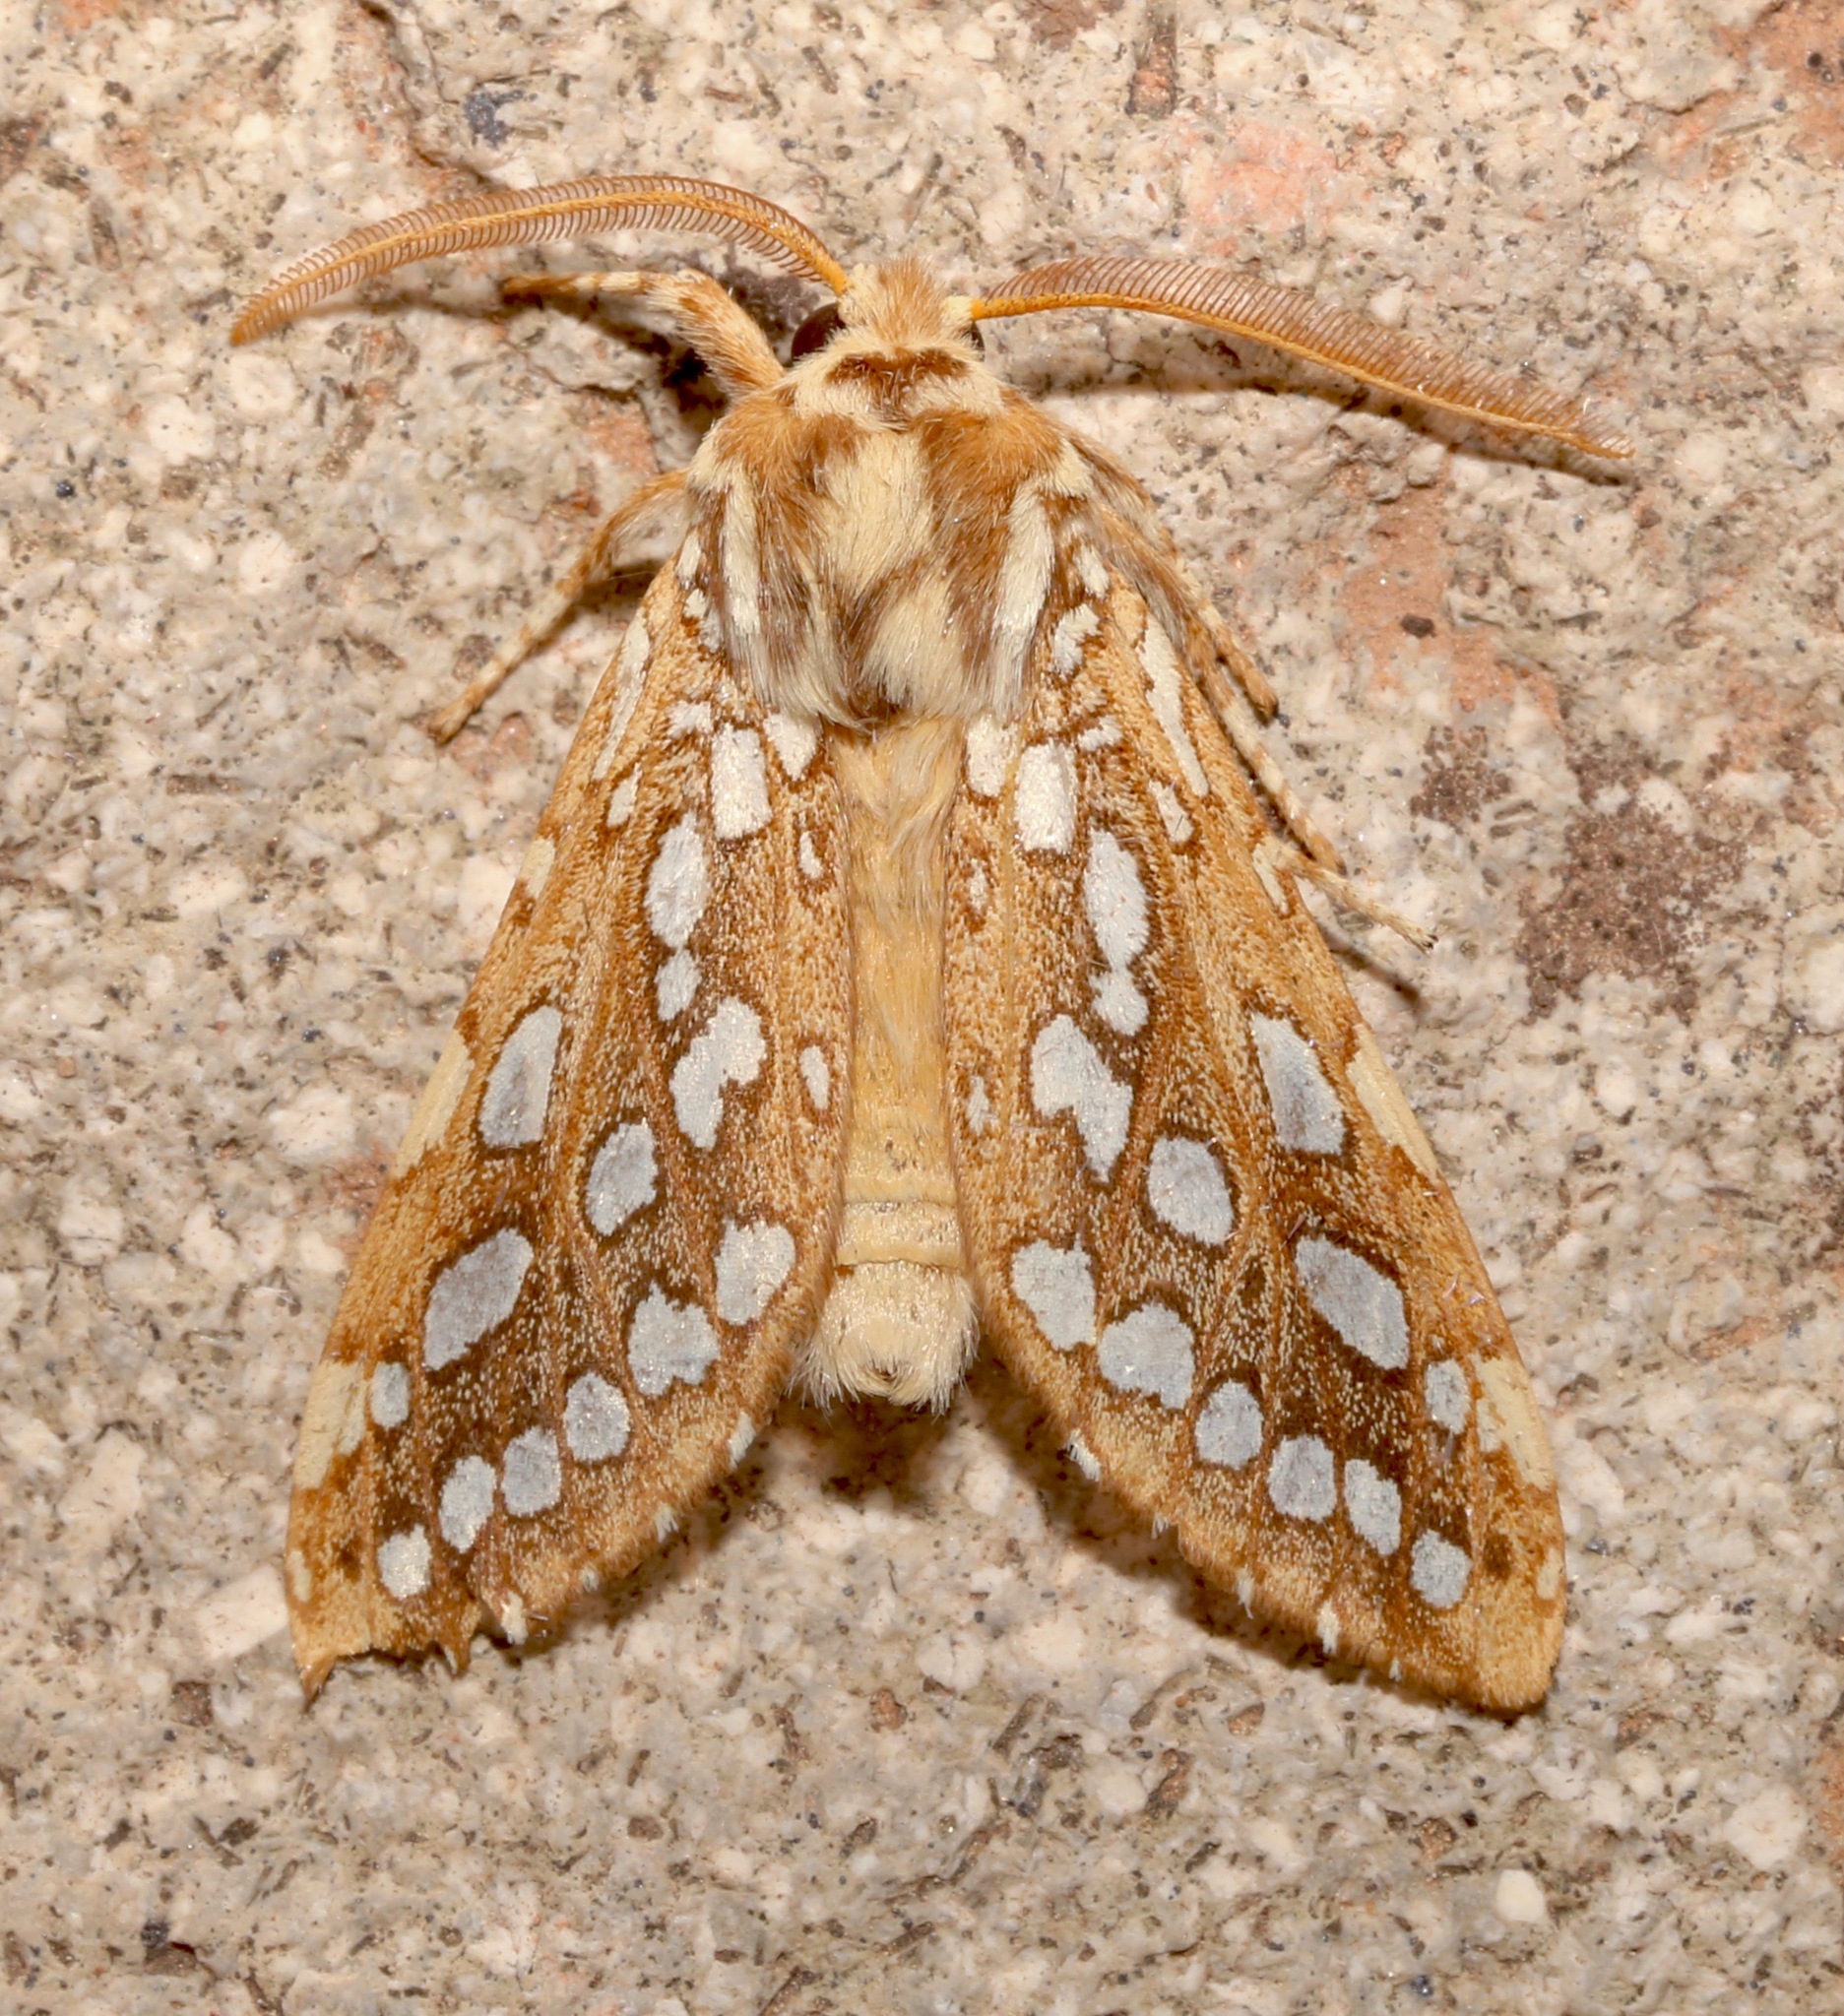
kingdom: Animalia
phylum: Arthropoda
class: Insecta
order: Lepidoptera
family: Erebidae
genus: Lophocampa
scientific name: Lophocampa argentata
